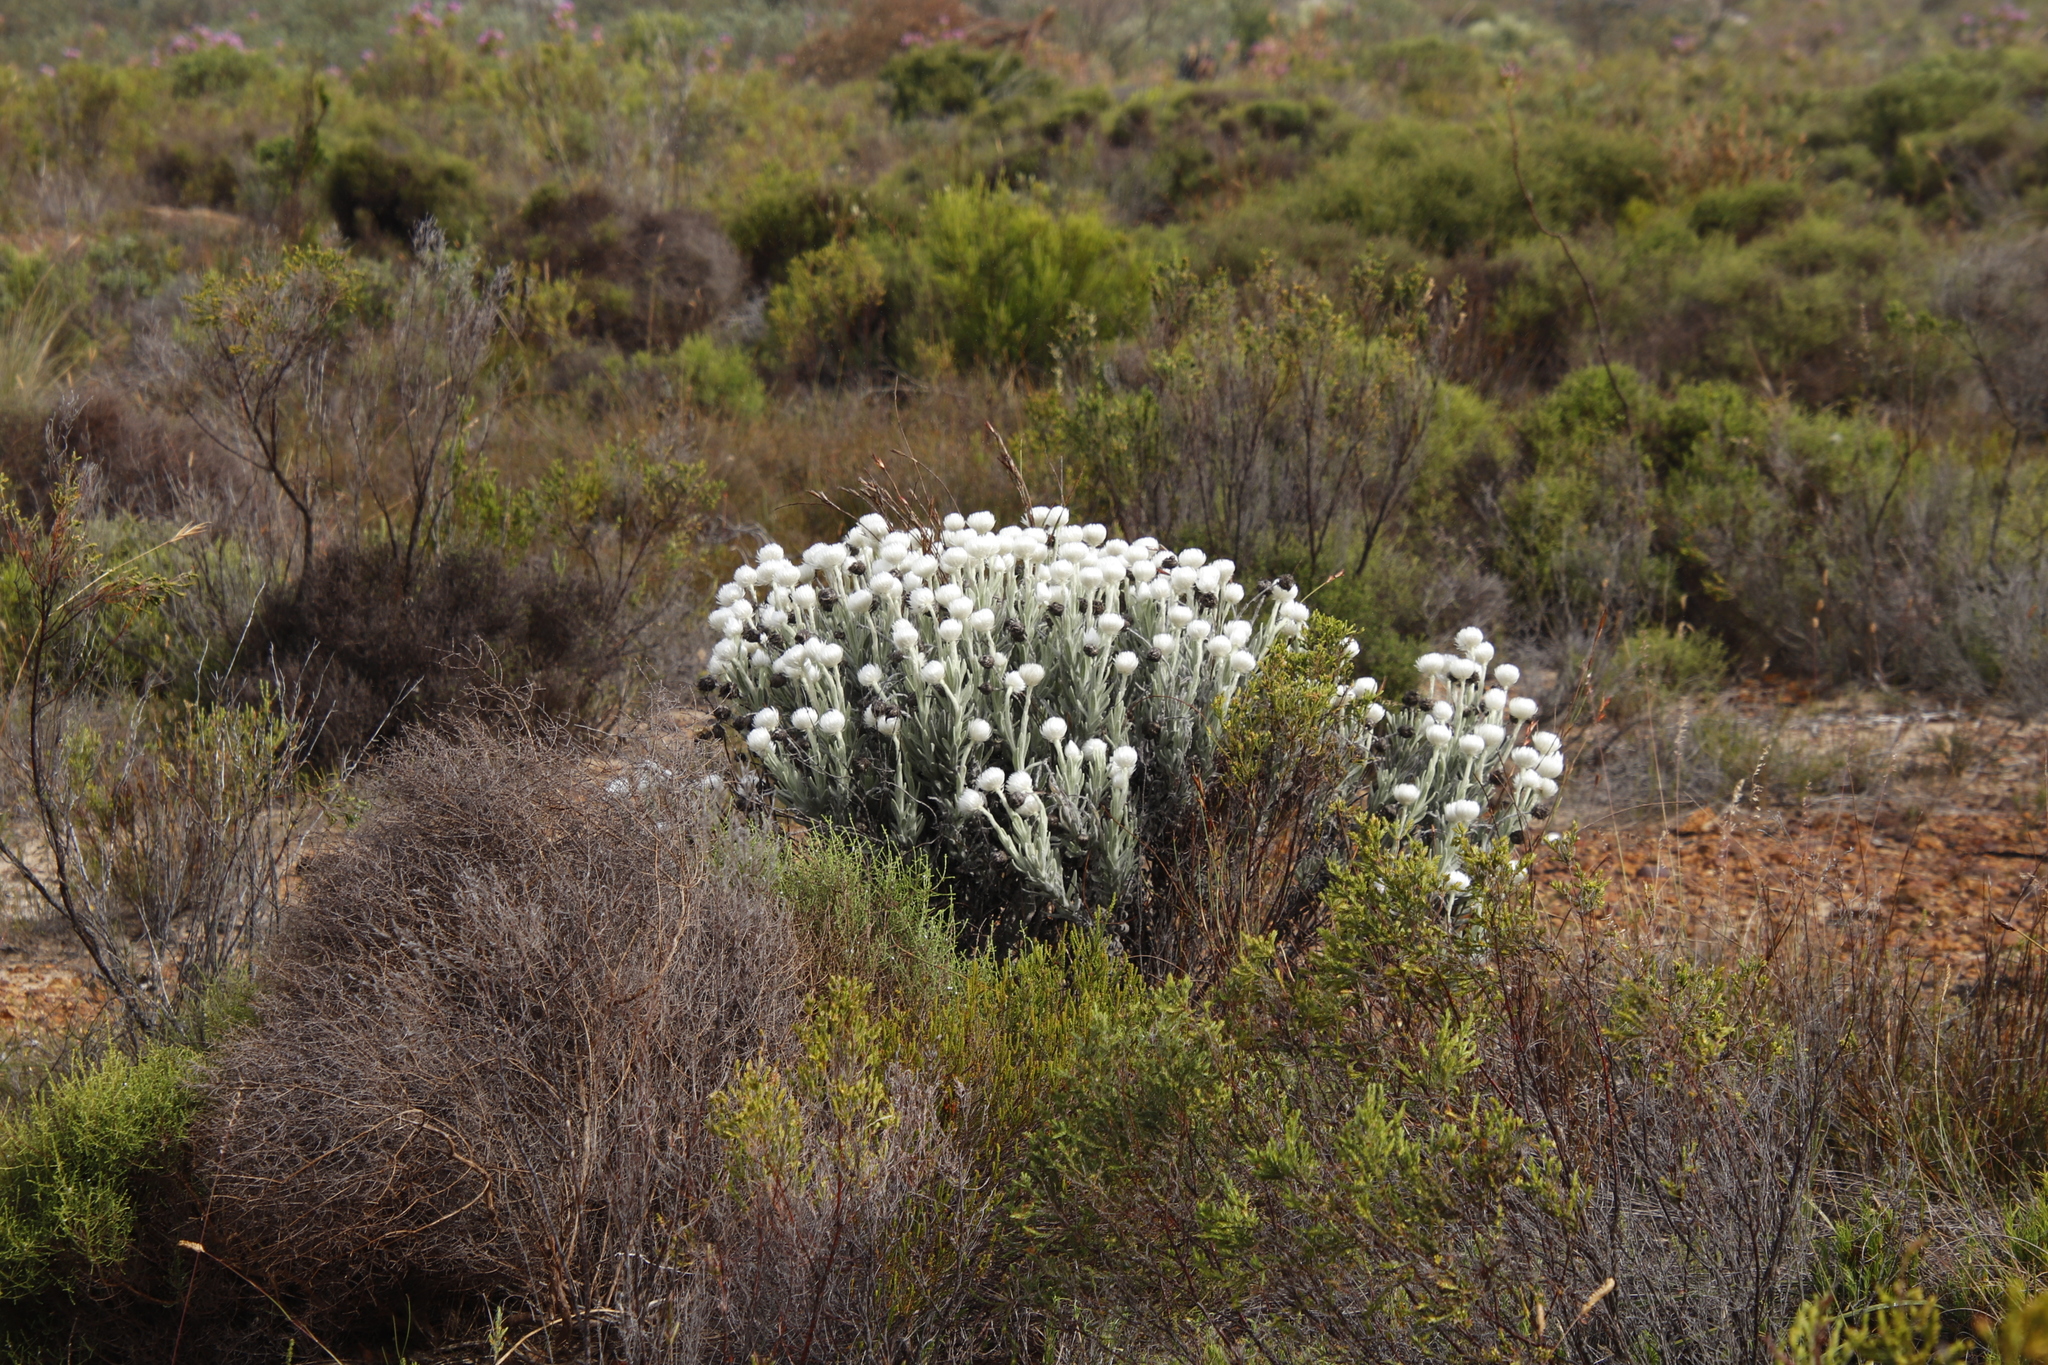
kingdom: Plantae
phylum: Tracheophyta
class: Magnoliopsida
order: Asterales
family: Asteraceae
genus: Syncarpha
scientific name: Syncarpha vestita
